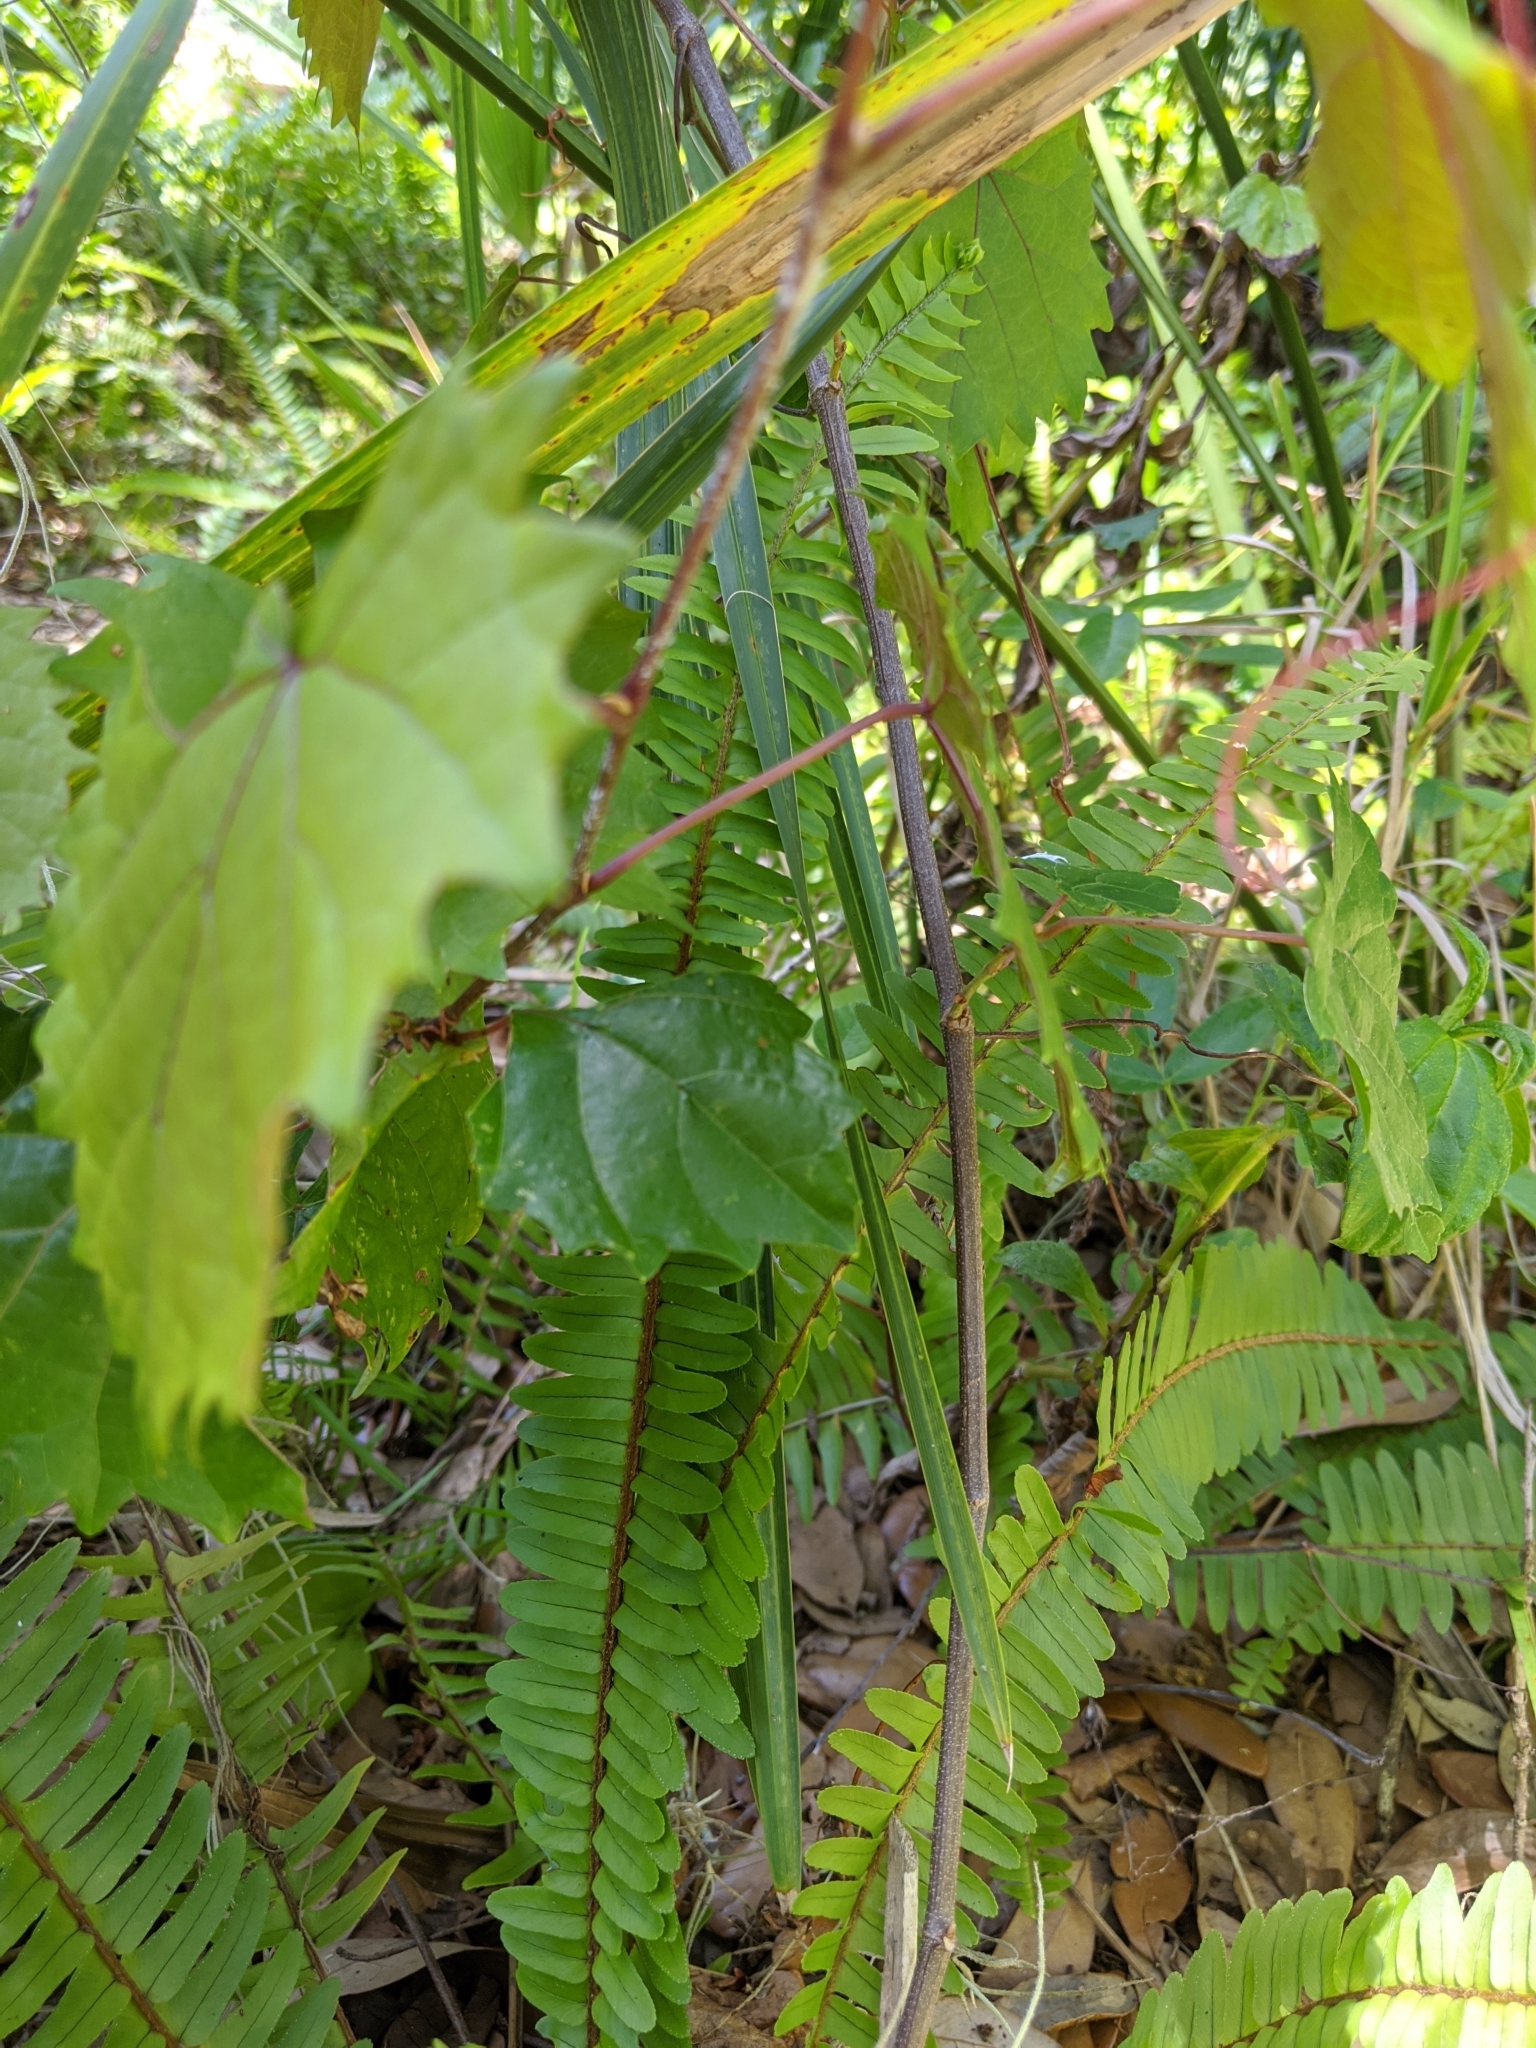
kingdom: Plantae
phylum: Tracheophyta
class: Magnoliopsida
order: Vitales
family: Vitaceae
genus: Vitis
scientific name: Vitis rotundifolia
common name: Muscadine grape
